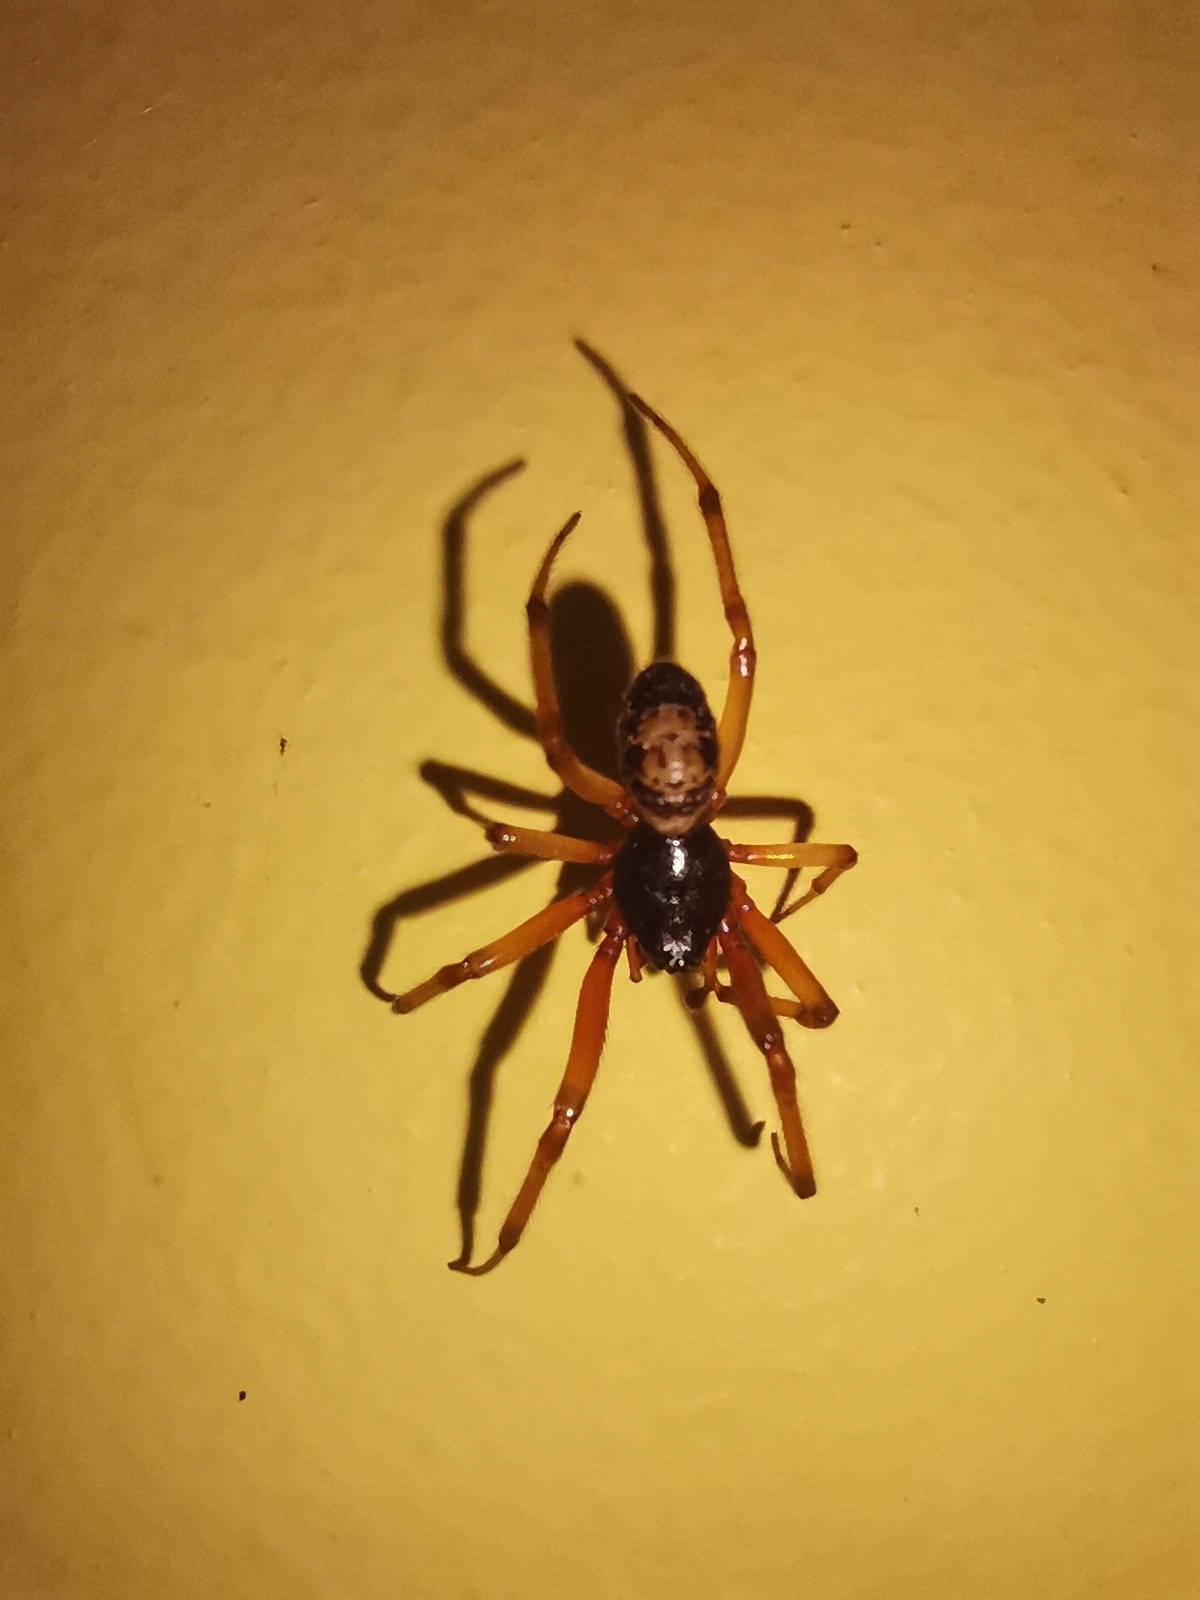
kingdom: Animalia
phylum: Arthropoda
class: Arachnida
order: Araneae
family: Theridiidae
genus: Steatoda
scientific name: Steatoda nobilis
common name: Cobweb weaver
